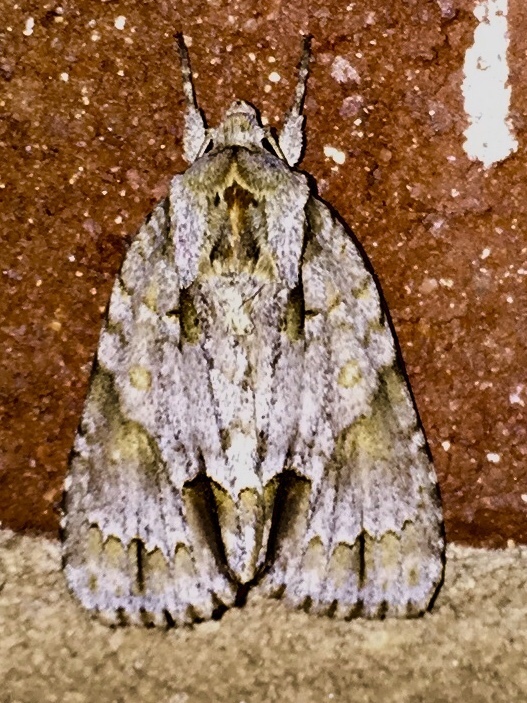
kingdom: Animalia
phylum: Arthropoda
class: Insecta
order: Lepidoptera
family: Noctuidae
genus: Acronicta
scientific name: Acronicta morula
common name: Ochre dagger
